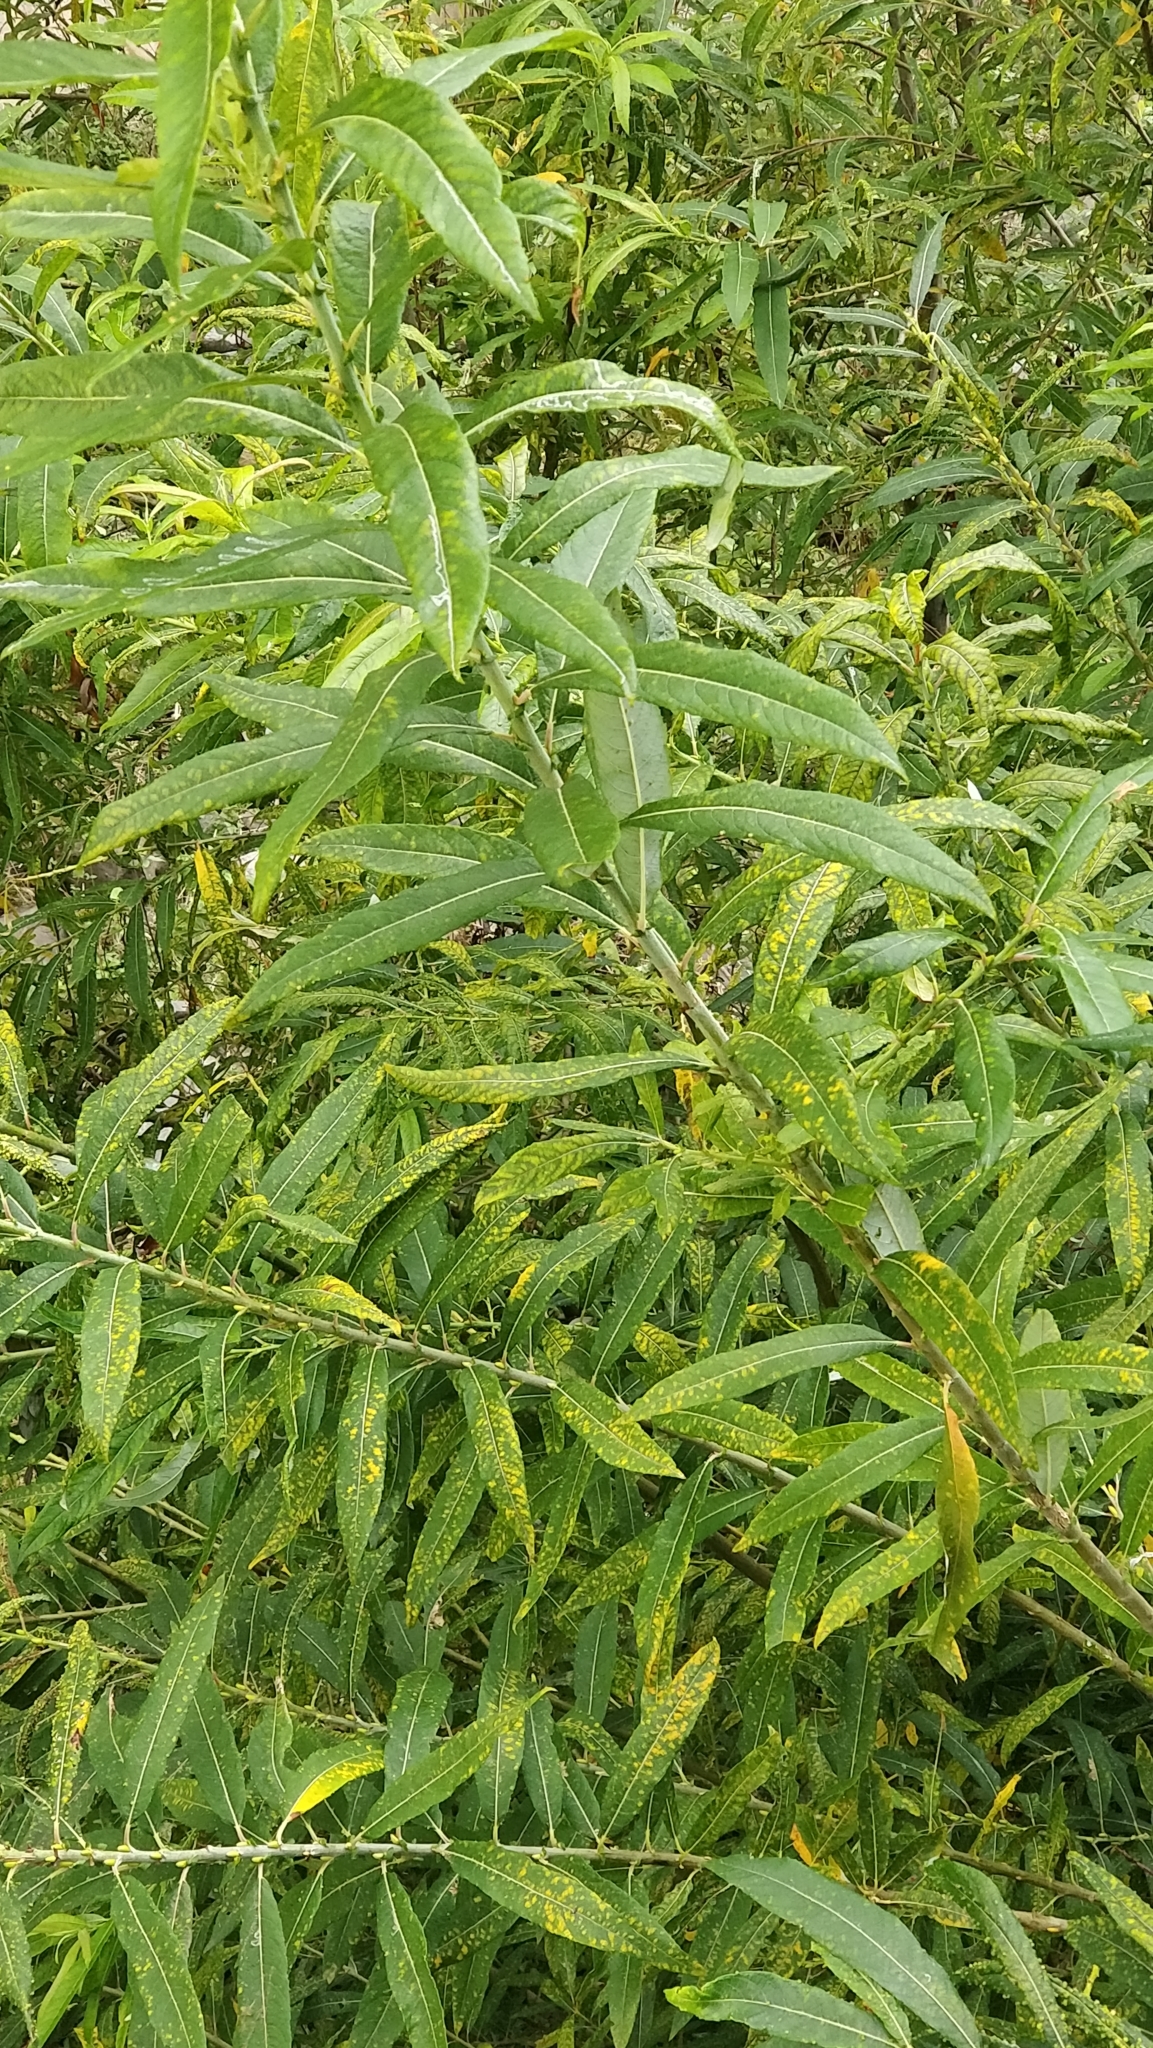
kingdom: Plantae
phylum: Tracheophyta
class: Magnoliopsida
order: Malpighiales
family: Salicaceae
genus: Salix
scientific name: Salix canariensis
